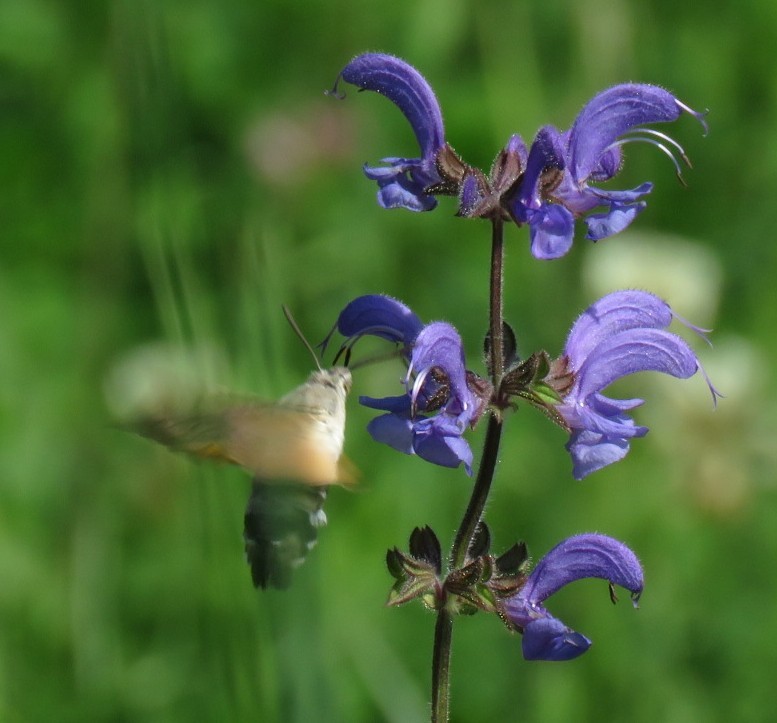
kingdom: Animalia
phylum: Arthropoda
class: Insecta
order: Lepidoptera
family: Sphingidae
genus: Macroglossum
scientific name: Macroglossum stellatarum
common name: Humming-bird hawk-moth
